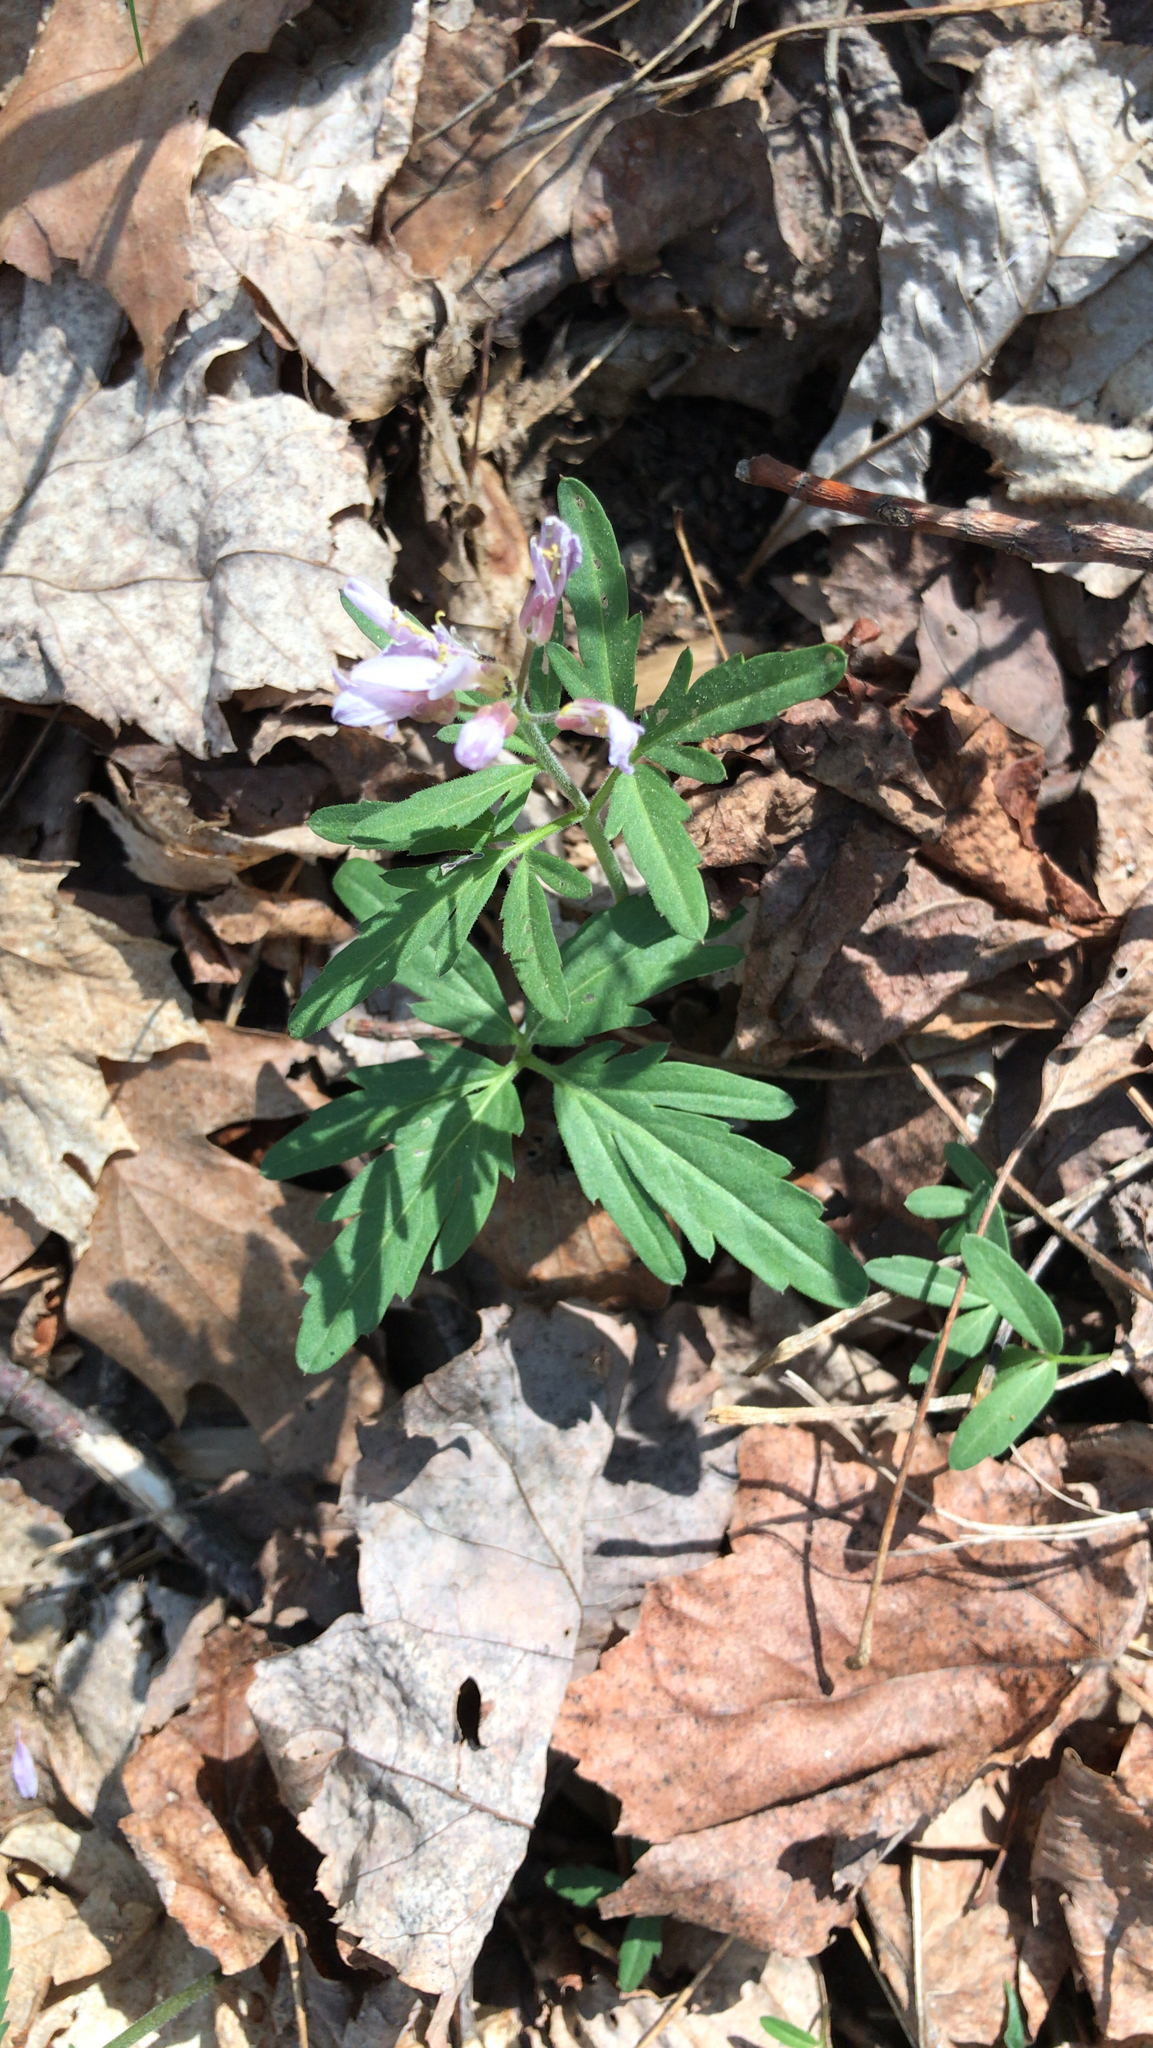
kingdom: Plantae
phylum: Tracheophyta
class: Magnoliopsida
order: Brassicales
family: Brassicaceae
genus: Cardamine
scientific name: Cardamine concatenata
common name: Cut-leaf toothcup
